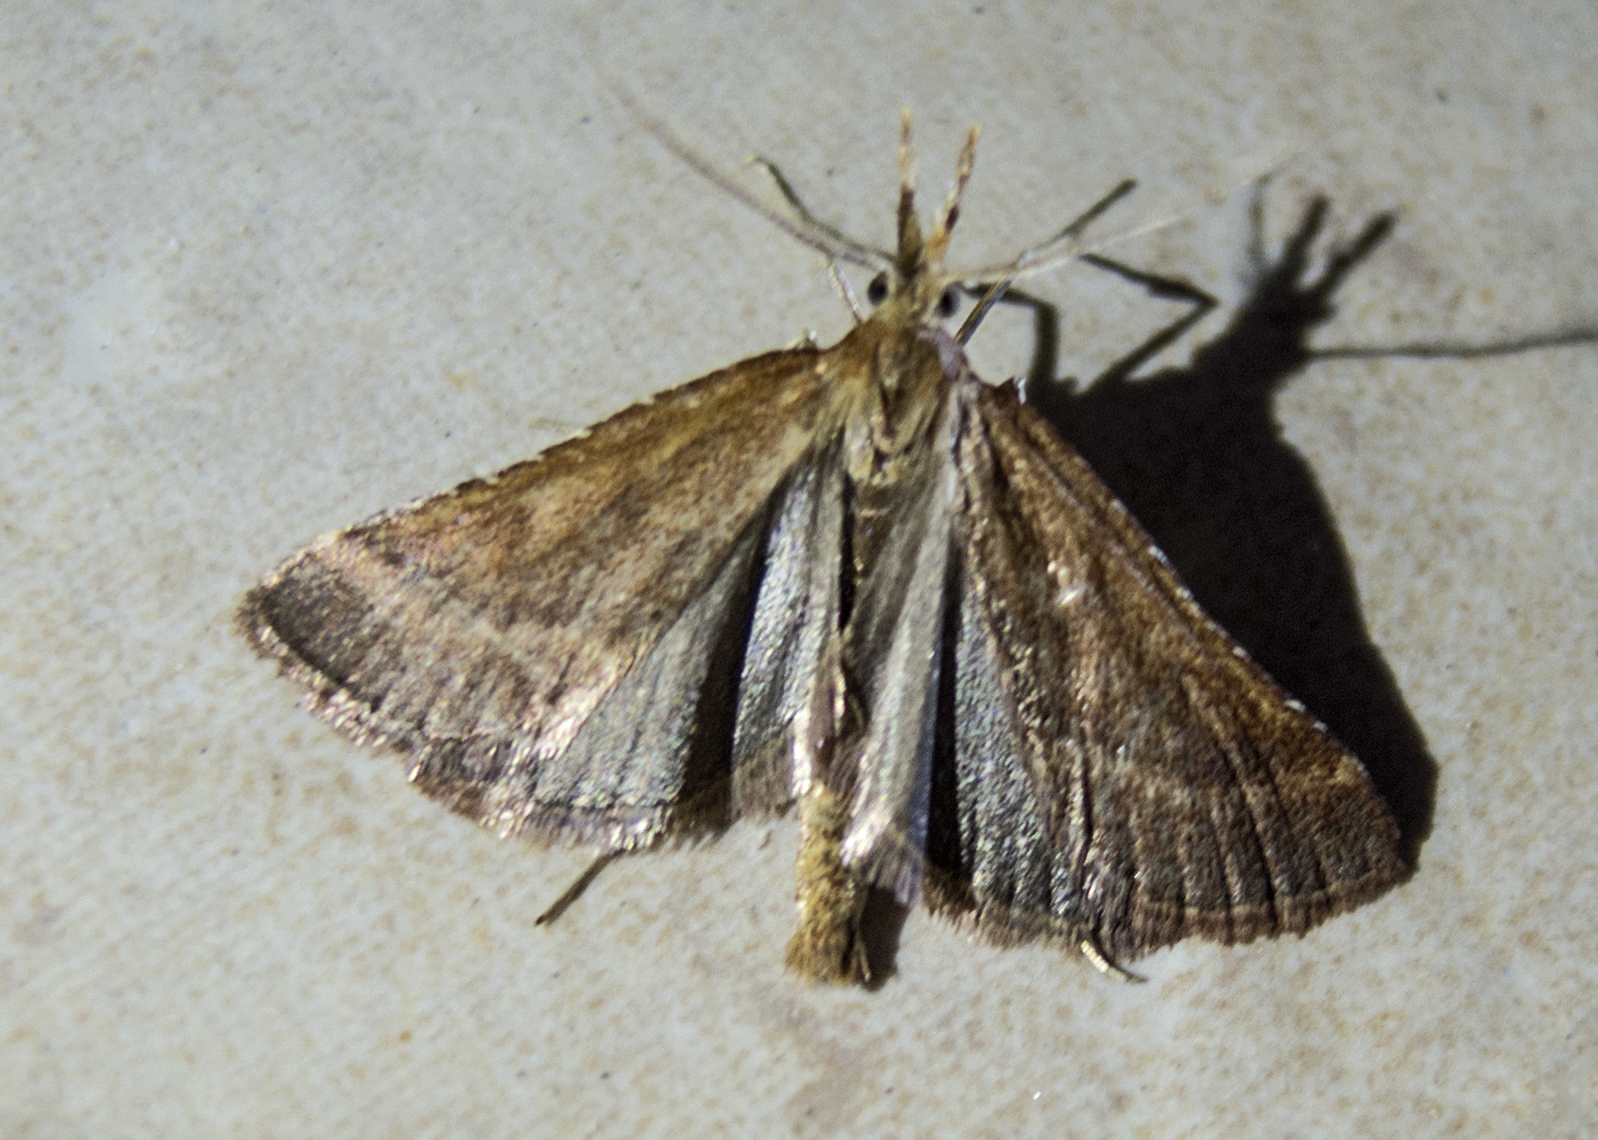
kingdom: Animalia
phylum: Arthropoda
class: Insecta
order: Lepidoptera
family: Pyralidae
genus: Synaphe
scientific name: Synaphe punctalis
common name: Long-legged tabby
